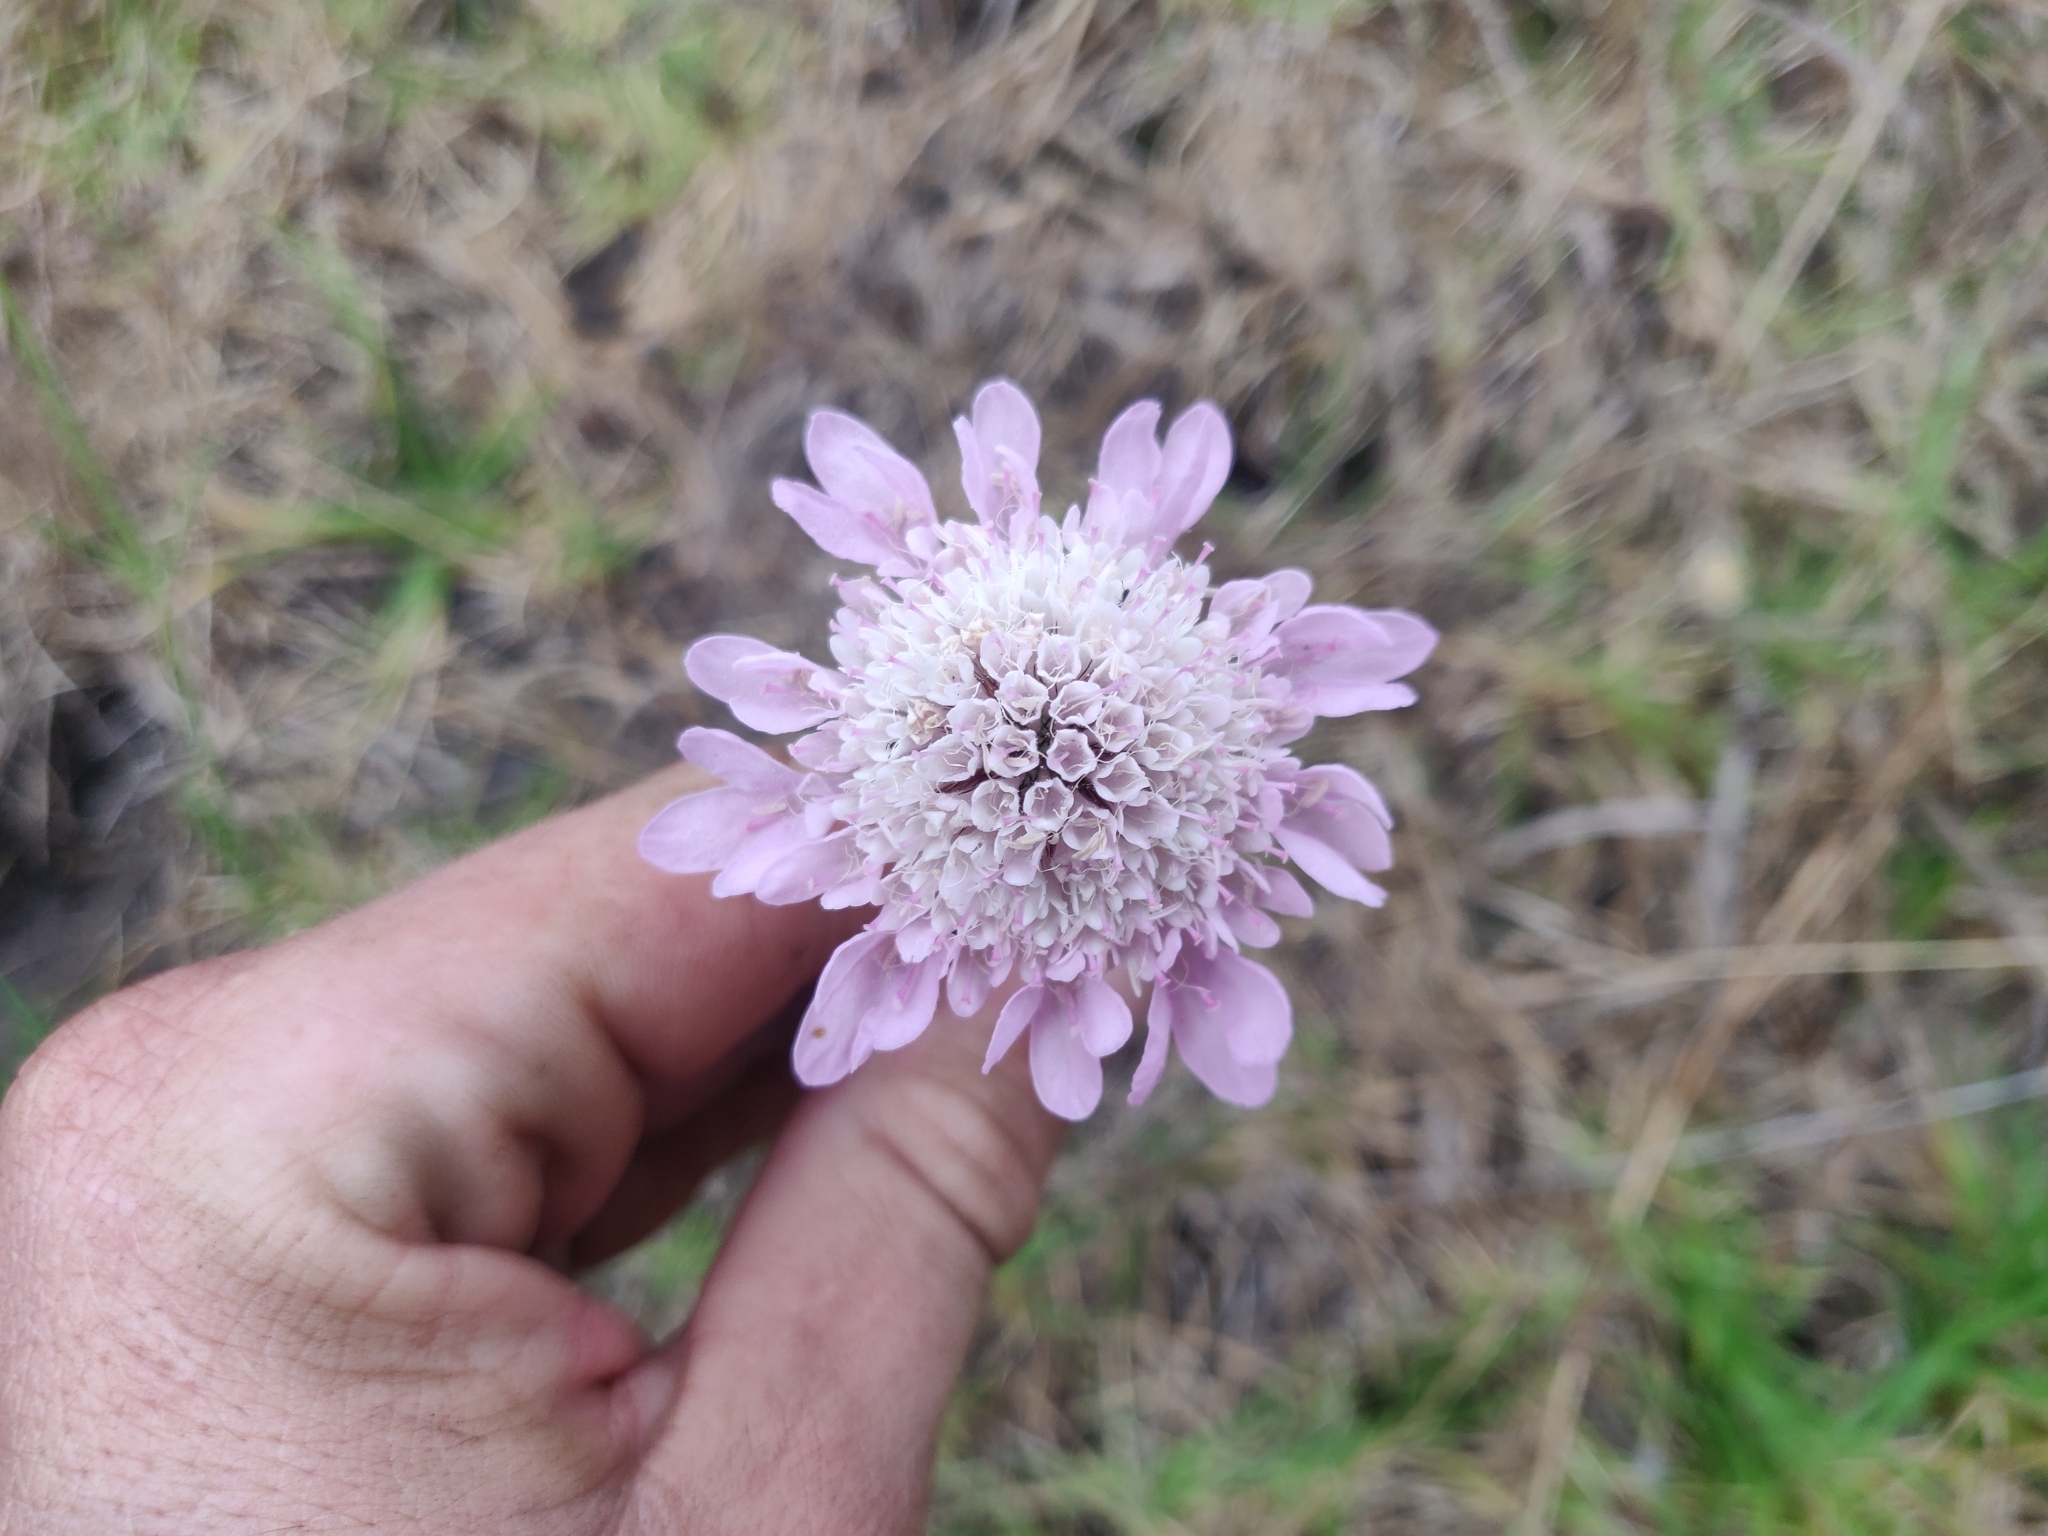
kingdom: Plantae
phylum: Tracheophyta
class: Magnoliopsida
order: Dipsacales
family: Caprifoliaceae
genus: Sixalix
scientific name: Sixalix atropurpurea
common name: Sweet scabious
